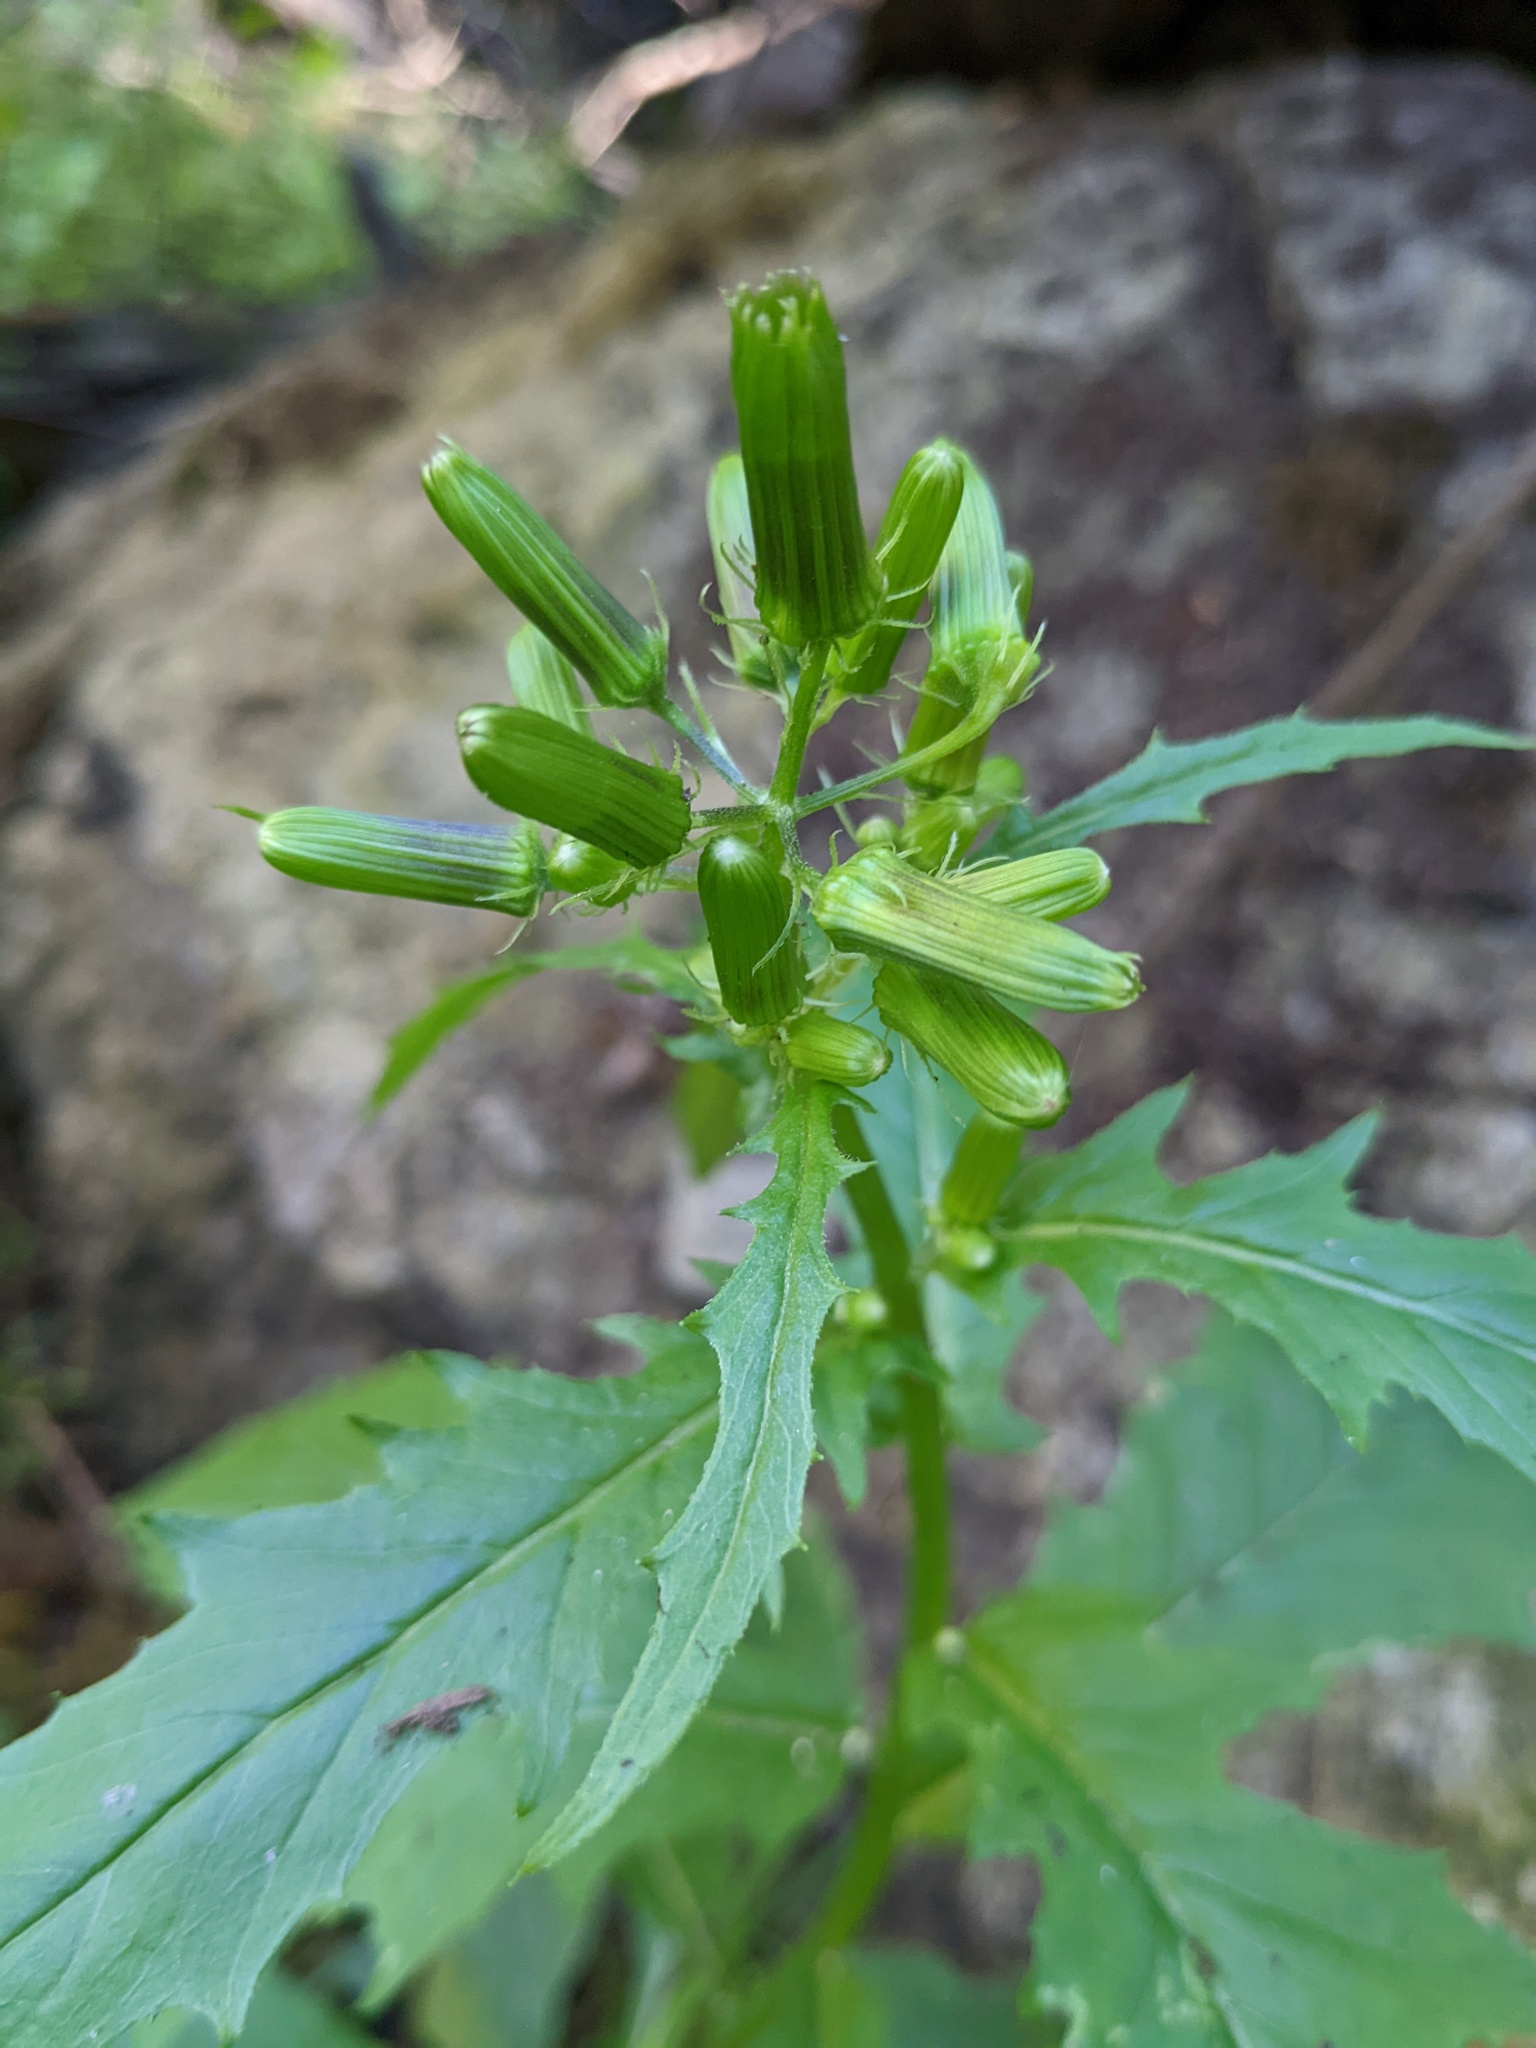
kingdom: Plantae
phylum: Tracheophyta
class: Magnoliopsida
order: Asterales
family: Asteraceae
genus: Erechtites
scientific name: Erechtites hieraciifolius
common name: American burnweed
